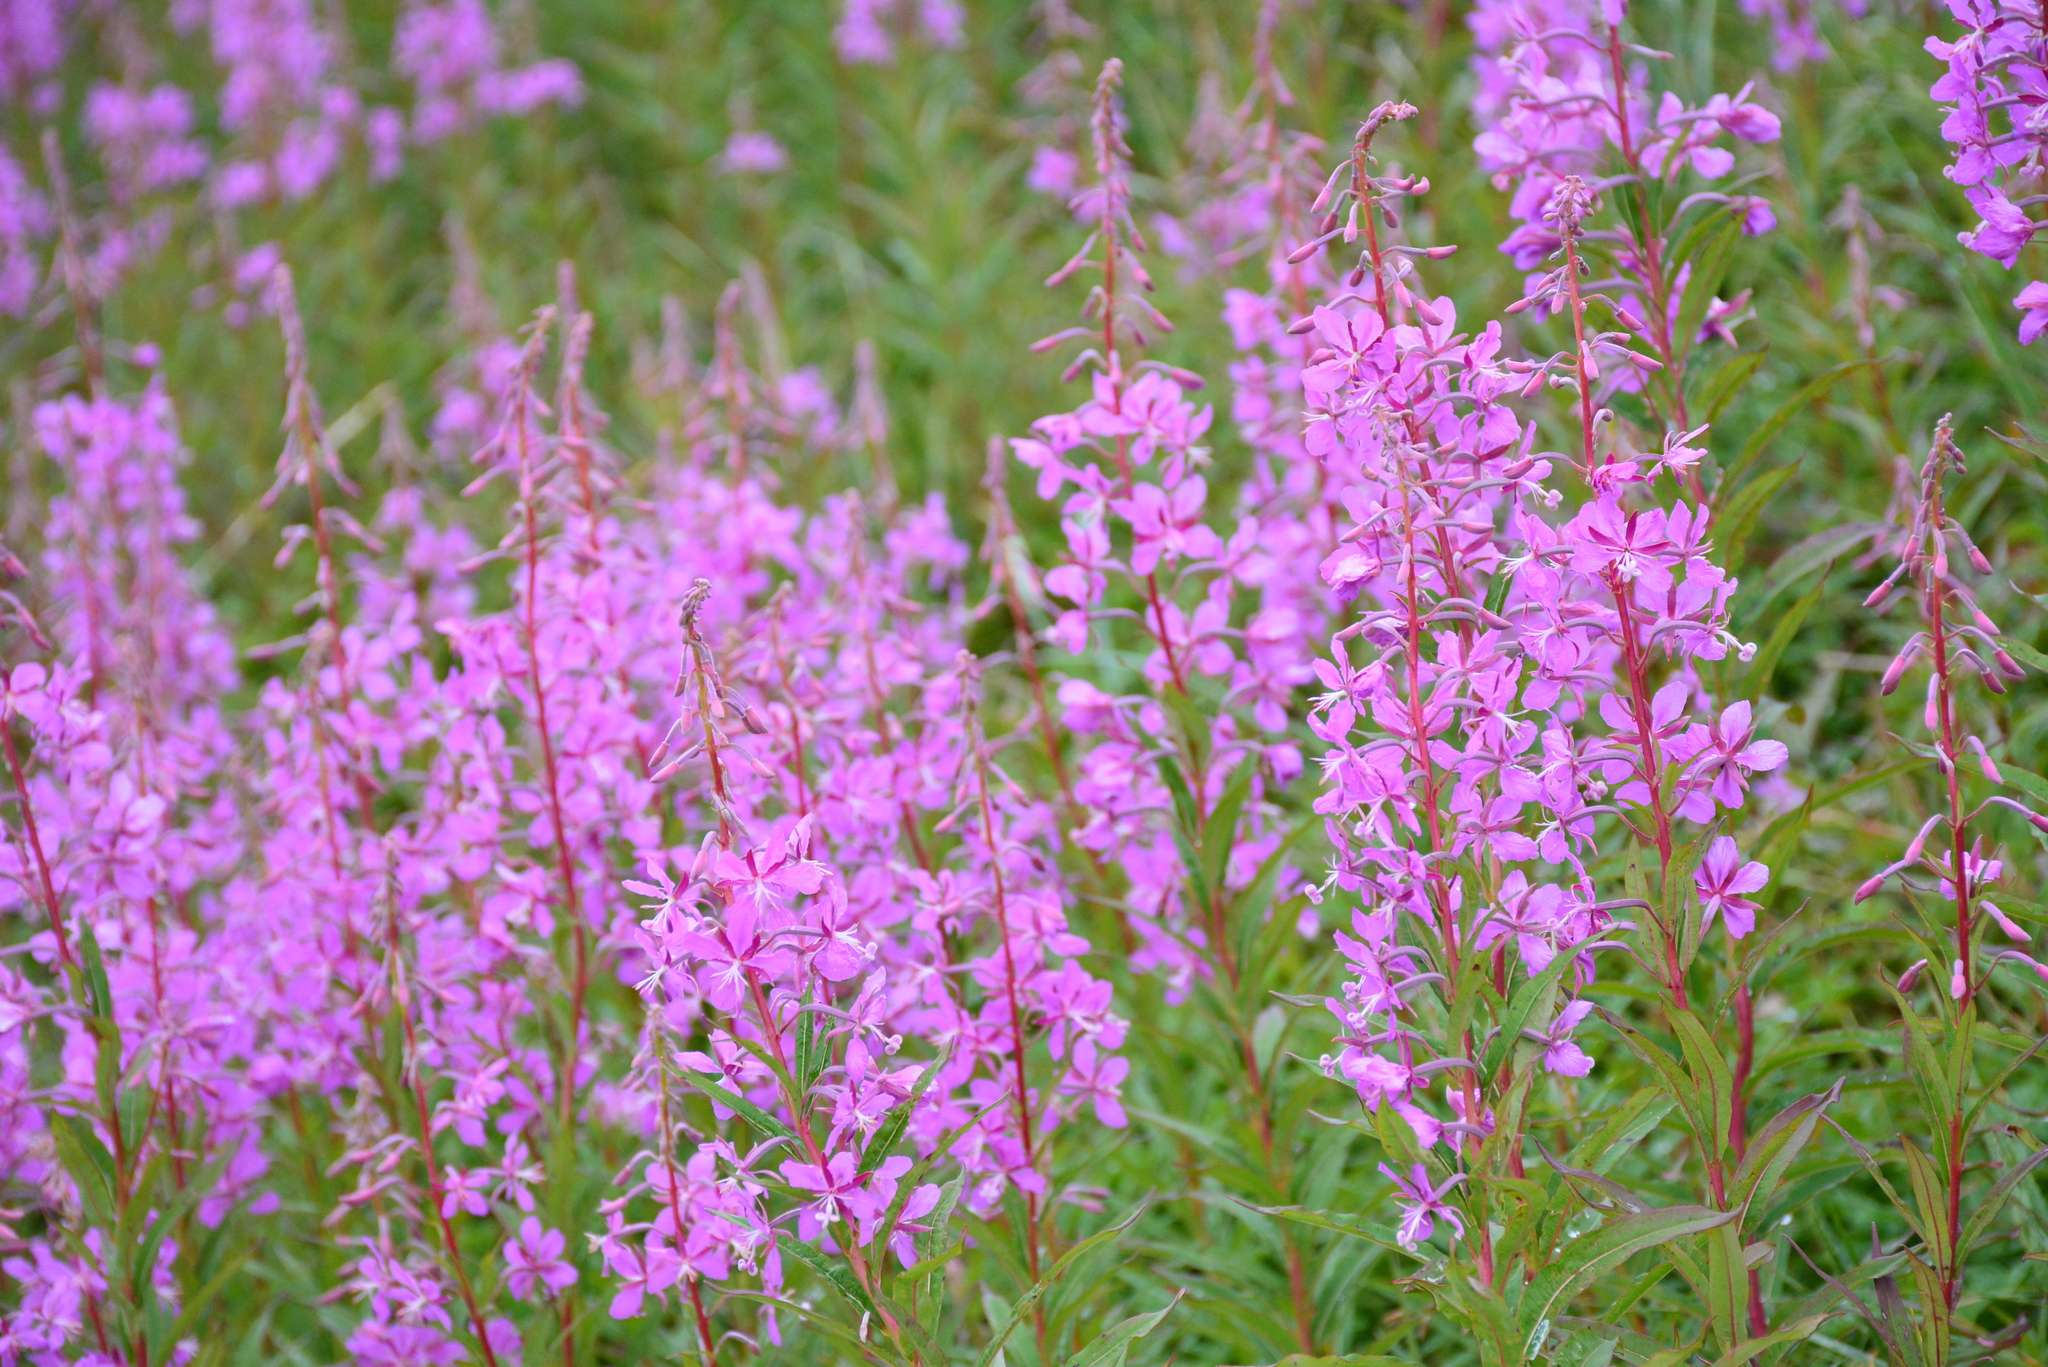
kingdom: Plantae
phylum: Tracheophyta
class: Magnoliopsida
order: Myrtales
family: Onagraceae
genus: Chamaenerion
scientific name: Chamaenerion angustifolium
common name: Fireweed
